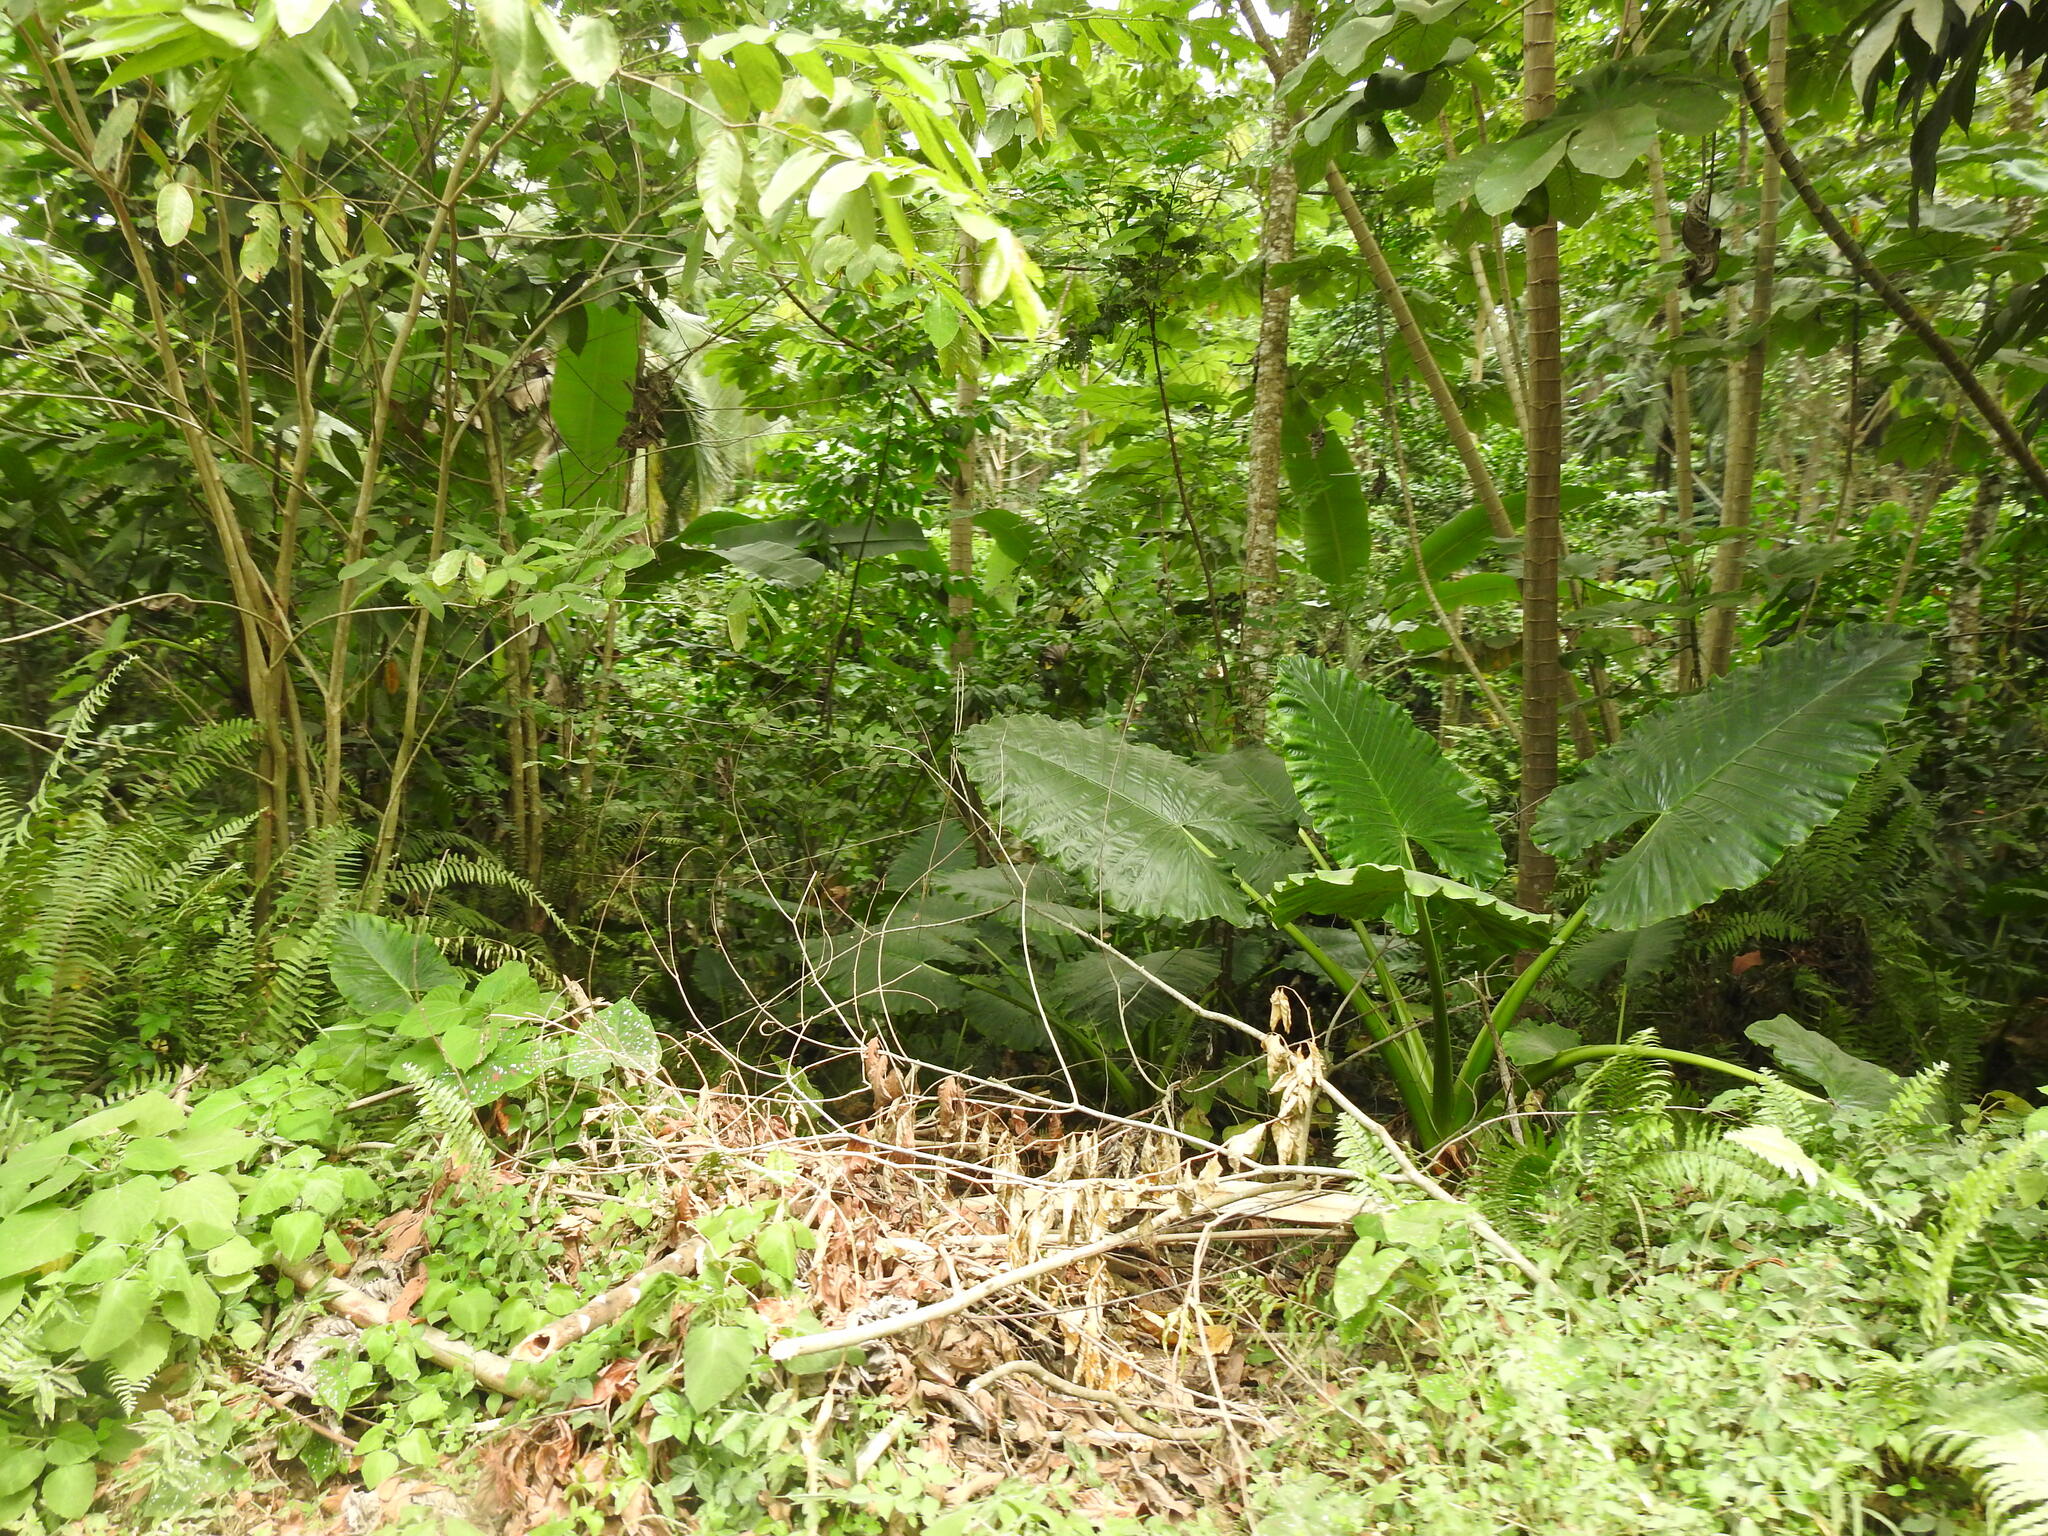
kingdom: Plantae
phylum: Tracheophyta
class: Liliopsida
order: Alismatales
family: Araceae
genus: Alocasia
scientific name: Alocasia macrorrhizos
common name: Giant taro
